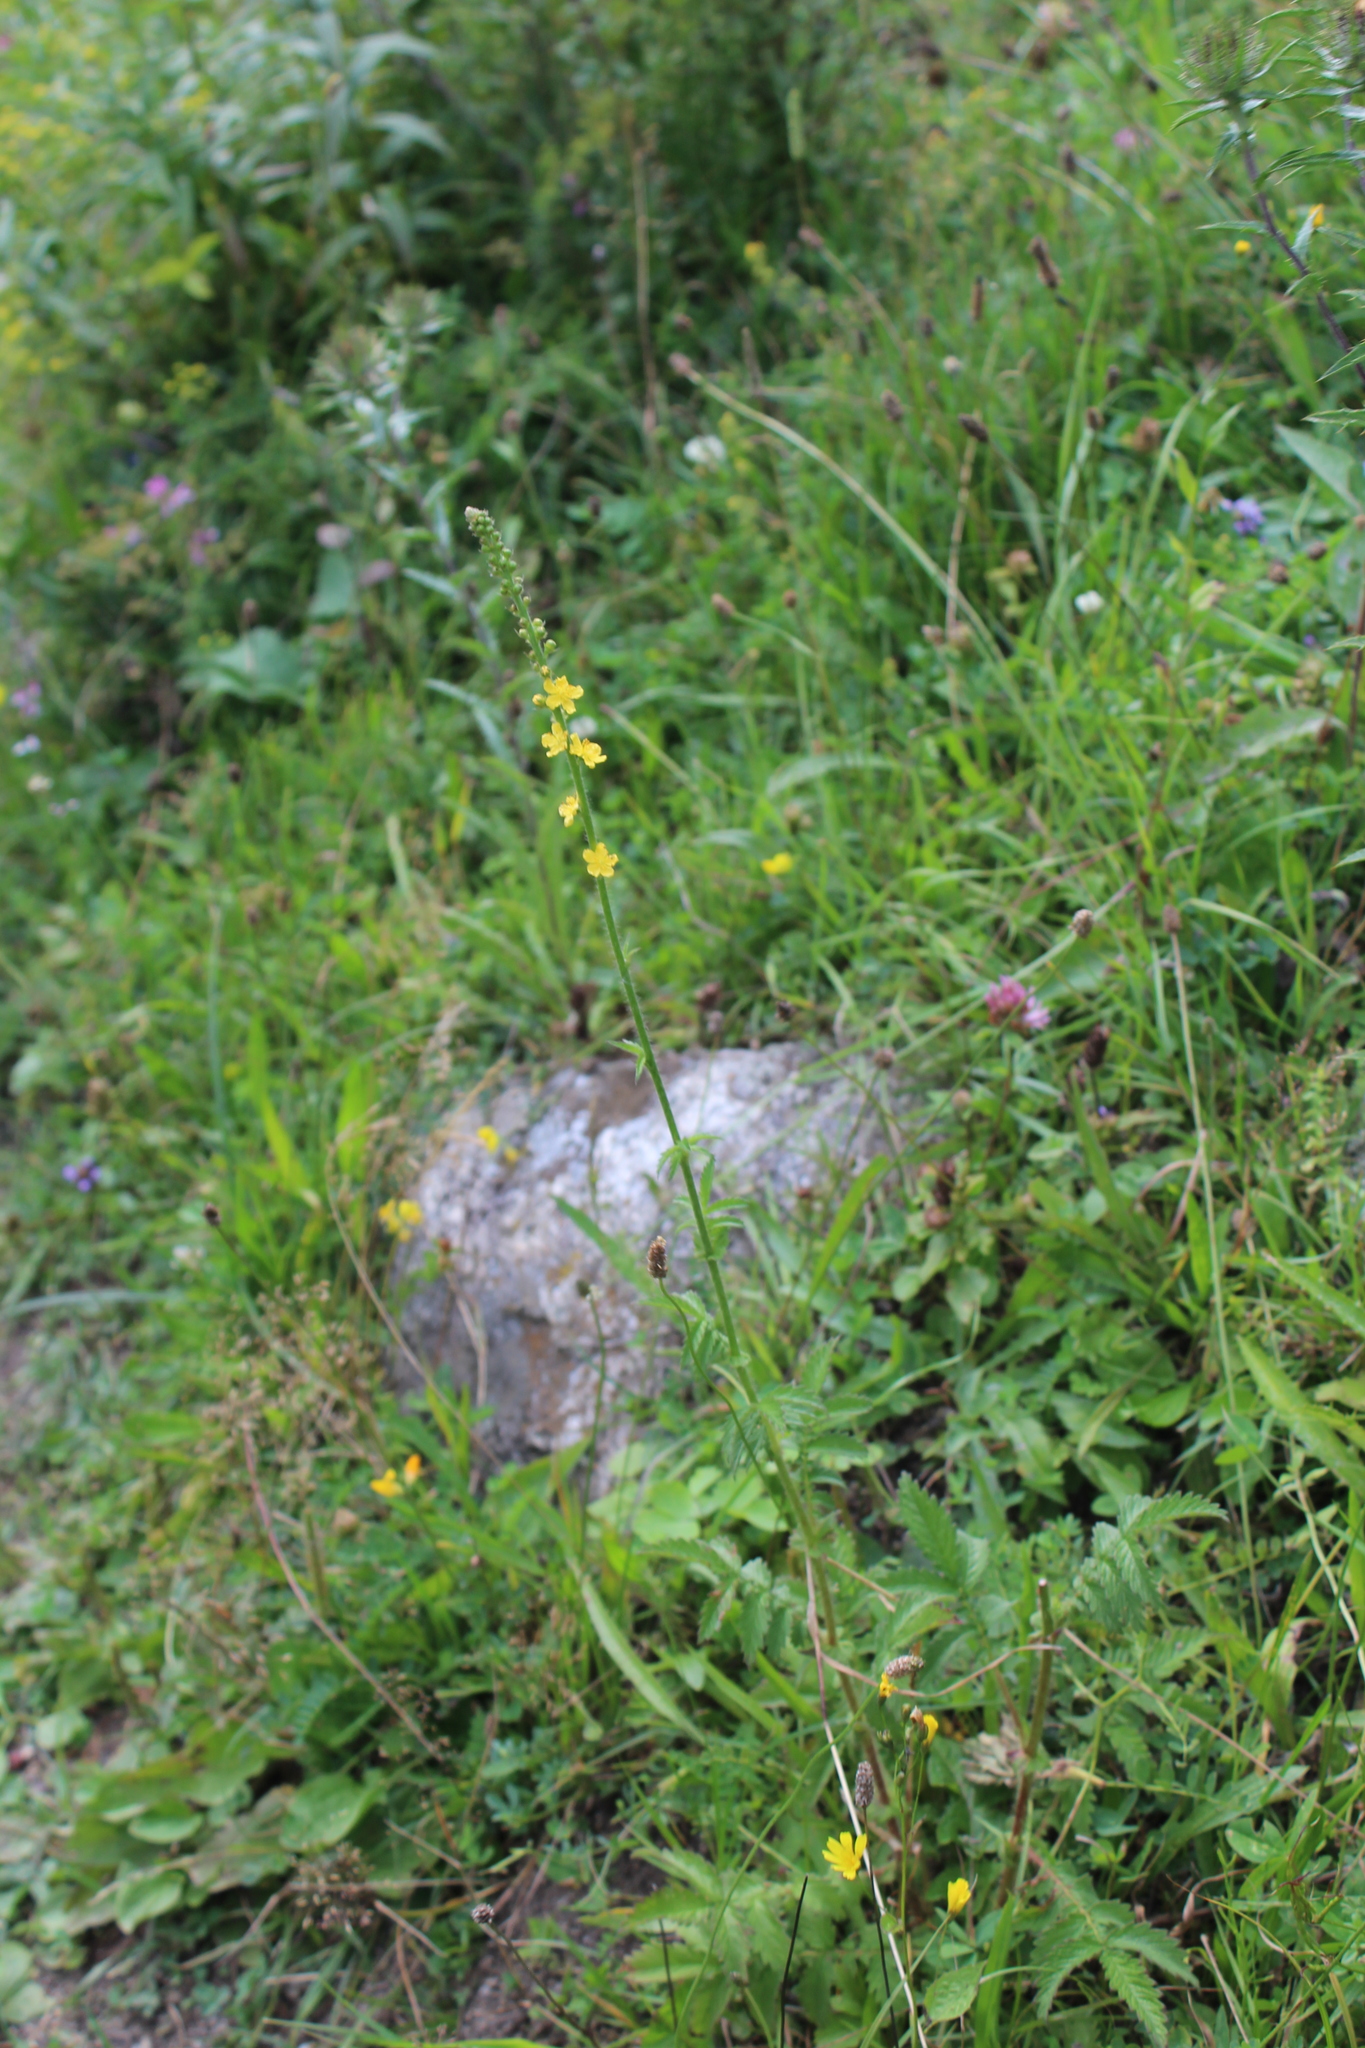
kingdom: Plantae
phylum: Tracheophyta
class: Magnoliopsida
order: Rosales
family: Rosaceae
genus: Agrimonia
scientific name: Agrimonia eupatoria
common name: Agrimony
